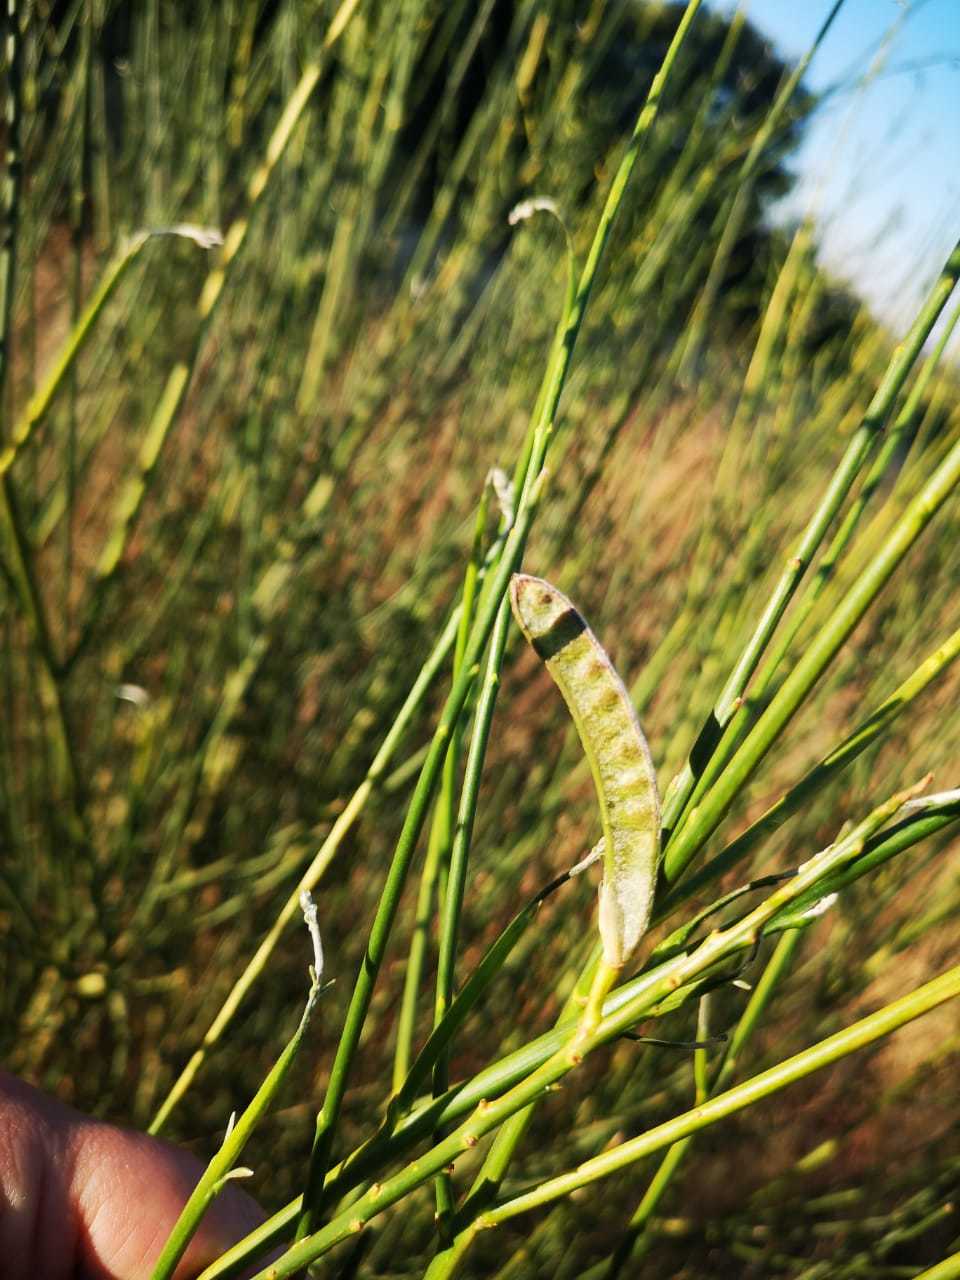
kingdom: Plantae
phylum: Tracheophyta
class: Magnoliopsida
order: Fabales
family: Fabaceae
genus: Spartium
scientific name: Spartium junceum
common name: Spanish broom
